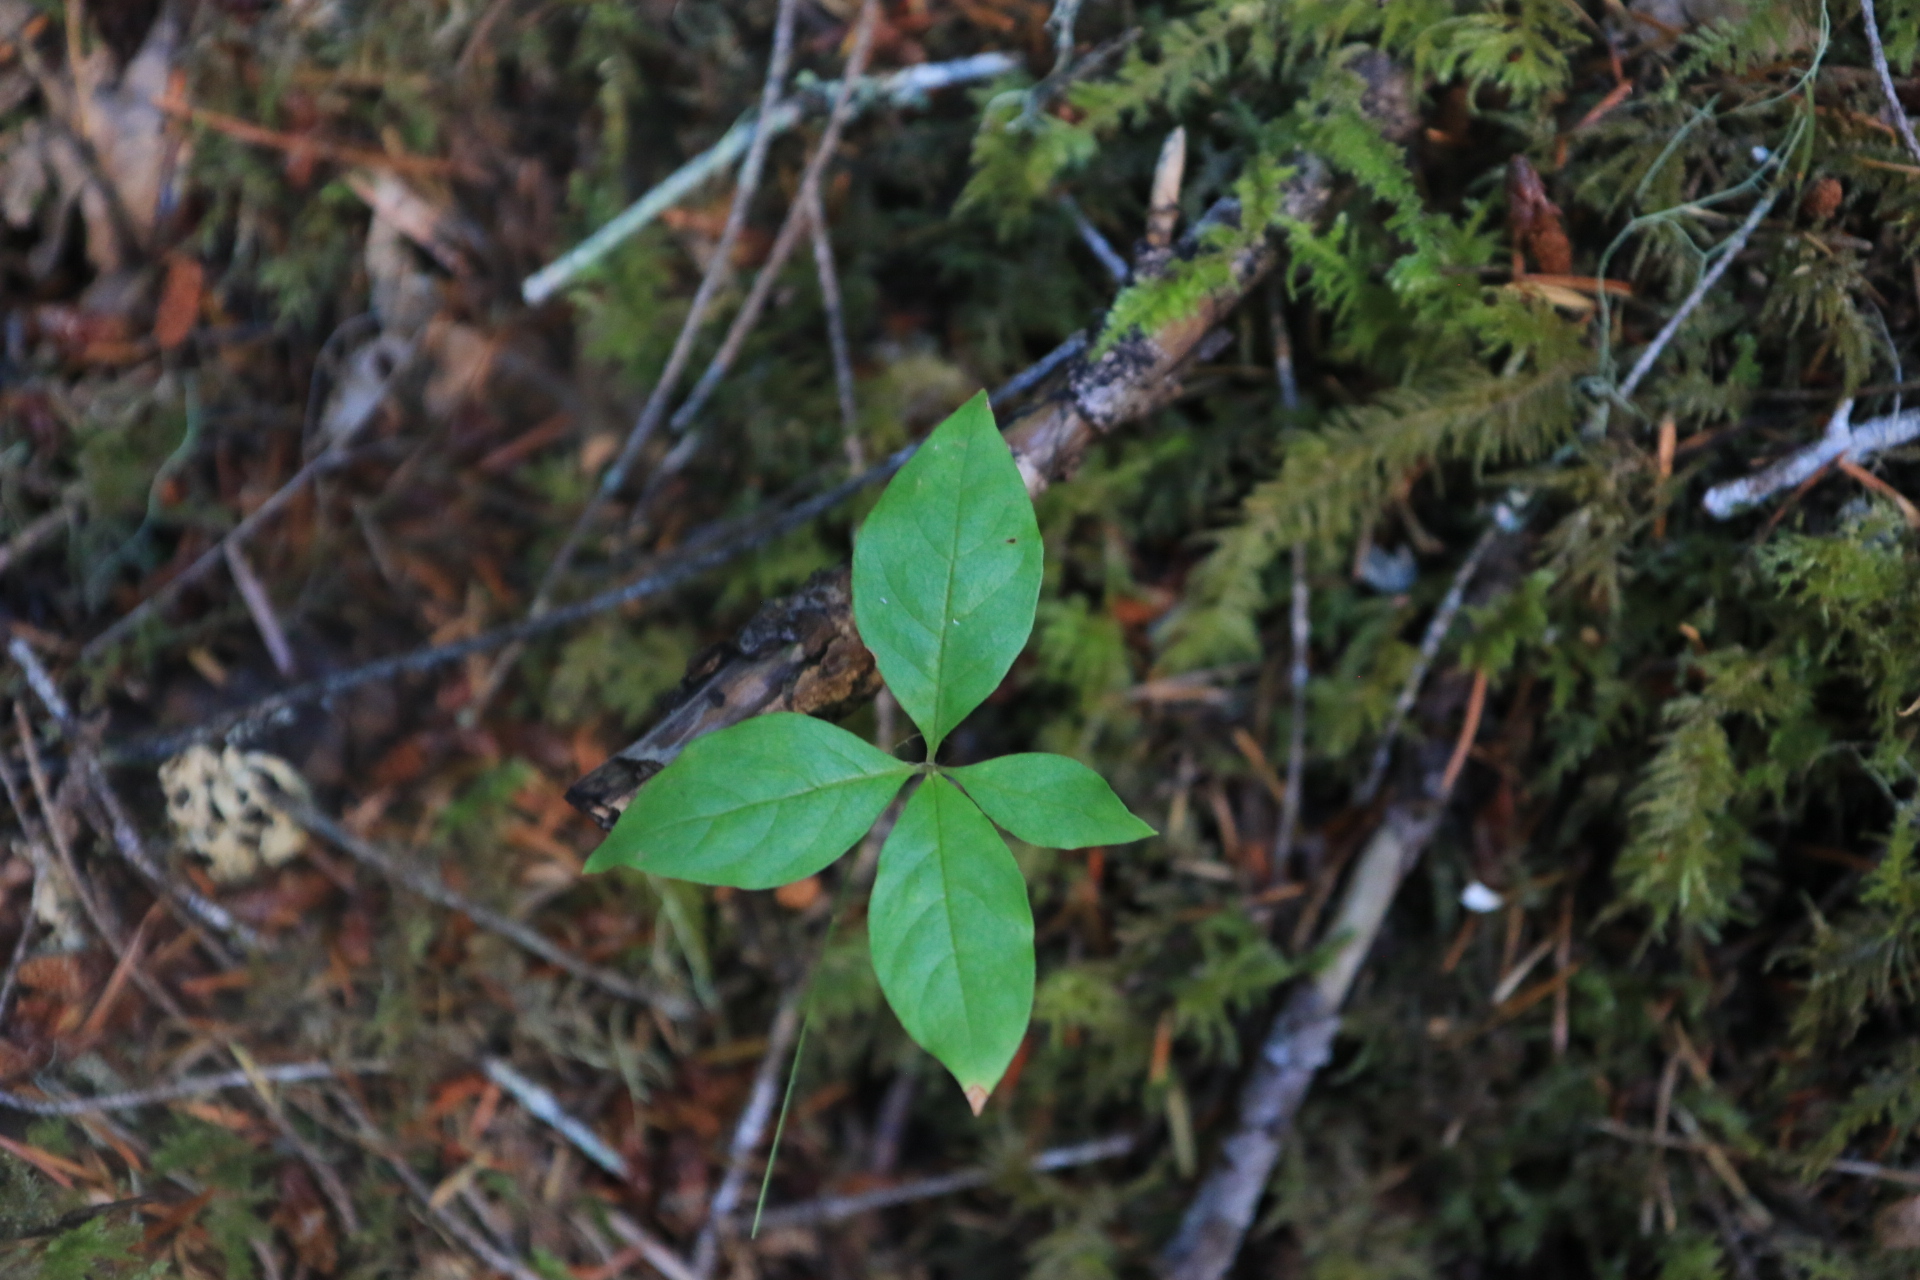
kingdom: Plantae
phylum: Tracheophyta
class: Magnoliopsida
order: Ericales
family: Primulaceae
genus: Lysimachia
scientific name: Lysimachia latifolia
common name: Pacific starflower
